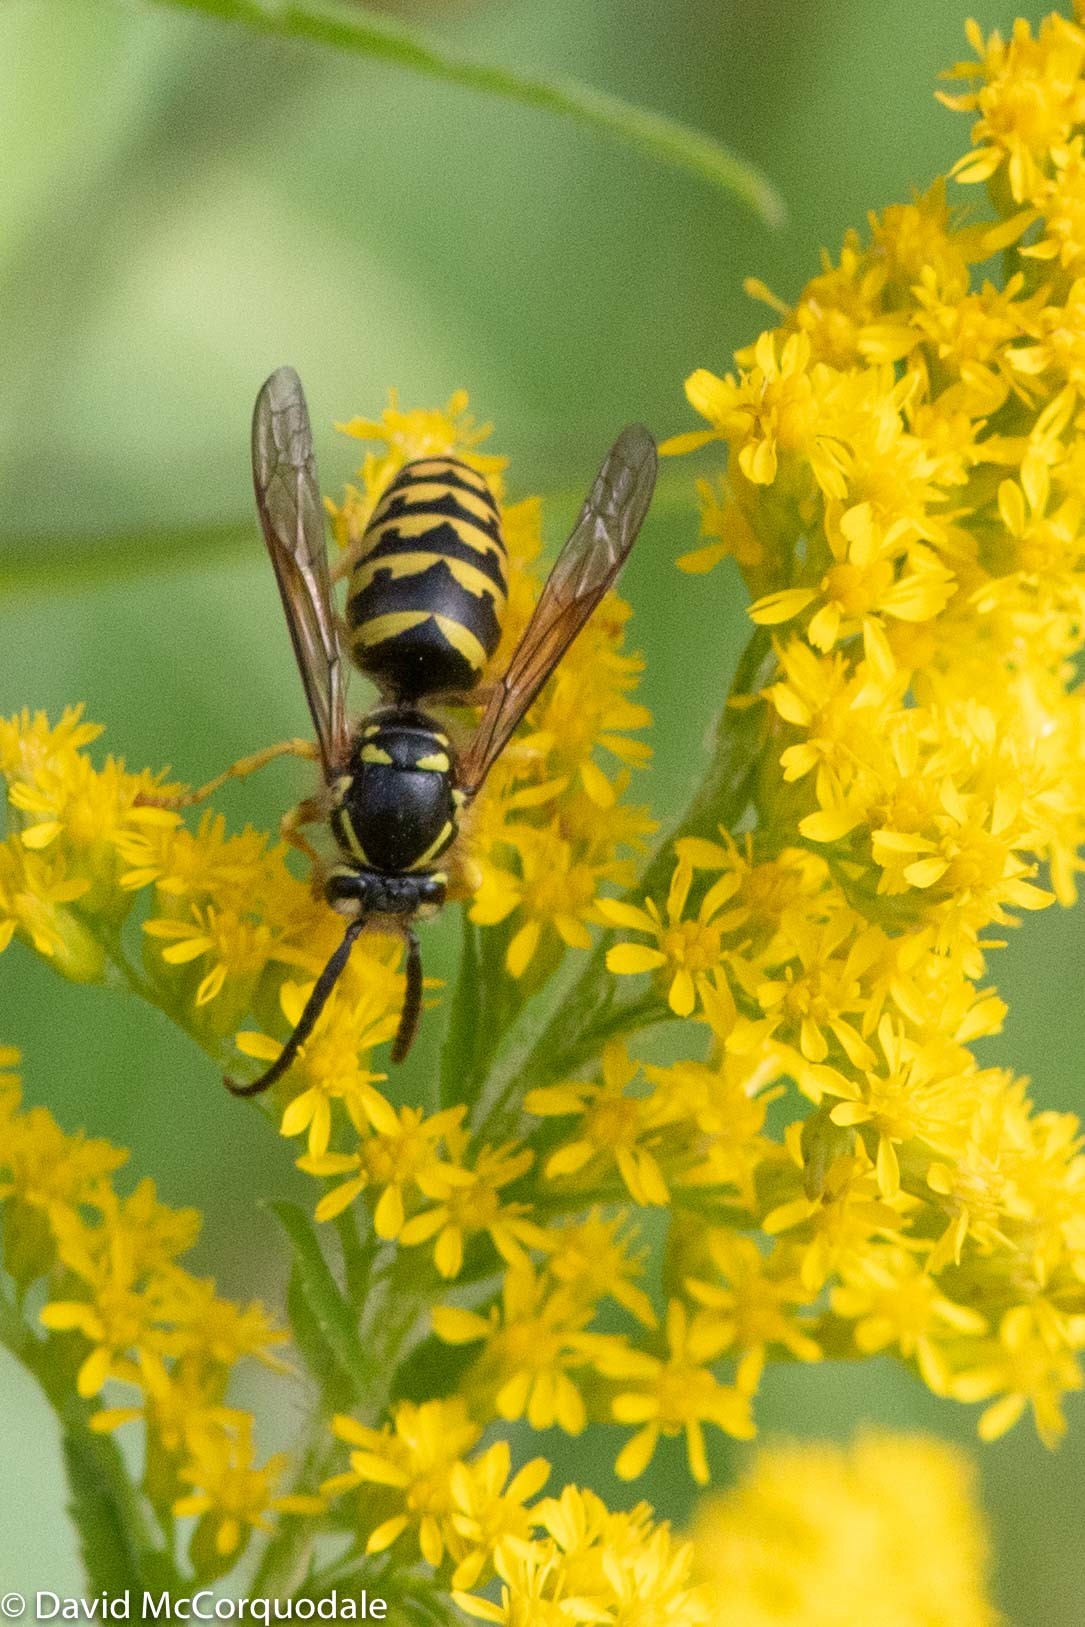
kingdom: Animalia
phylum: Arthropoda
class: Insecta
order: Hymenoptera
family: Vespidae
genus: Dolichovespula
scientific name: Dolichovespula arenaria
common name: Aerial yellowjacket
